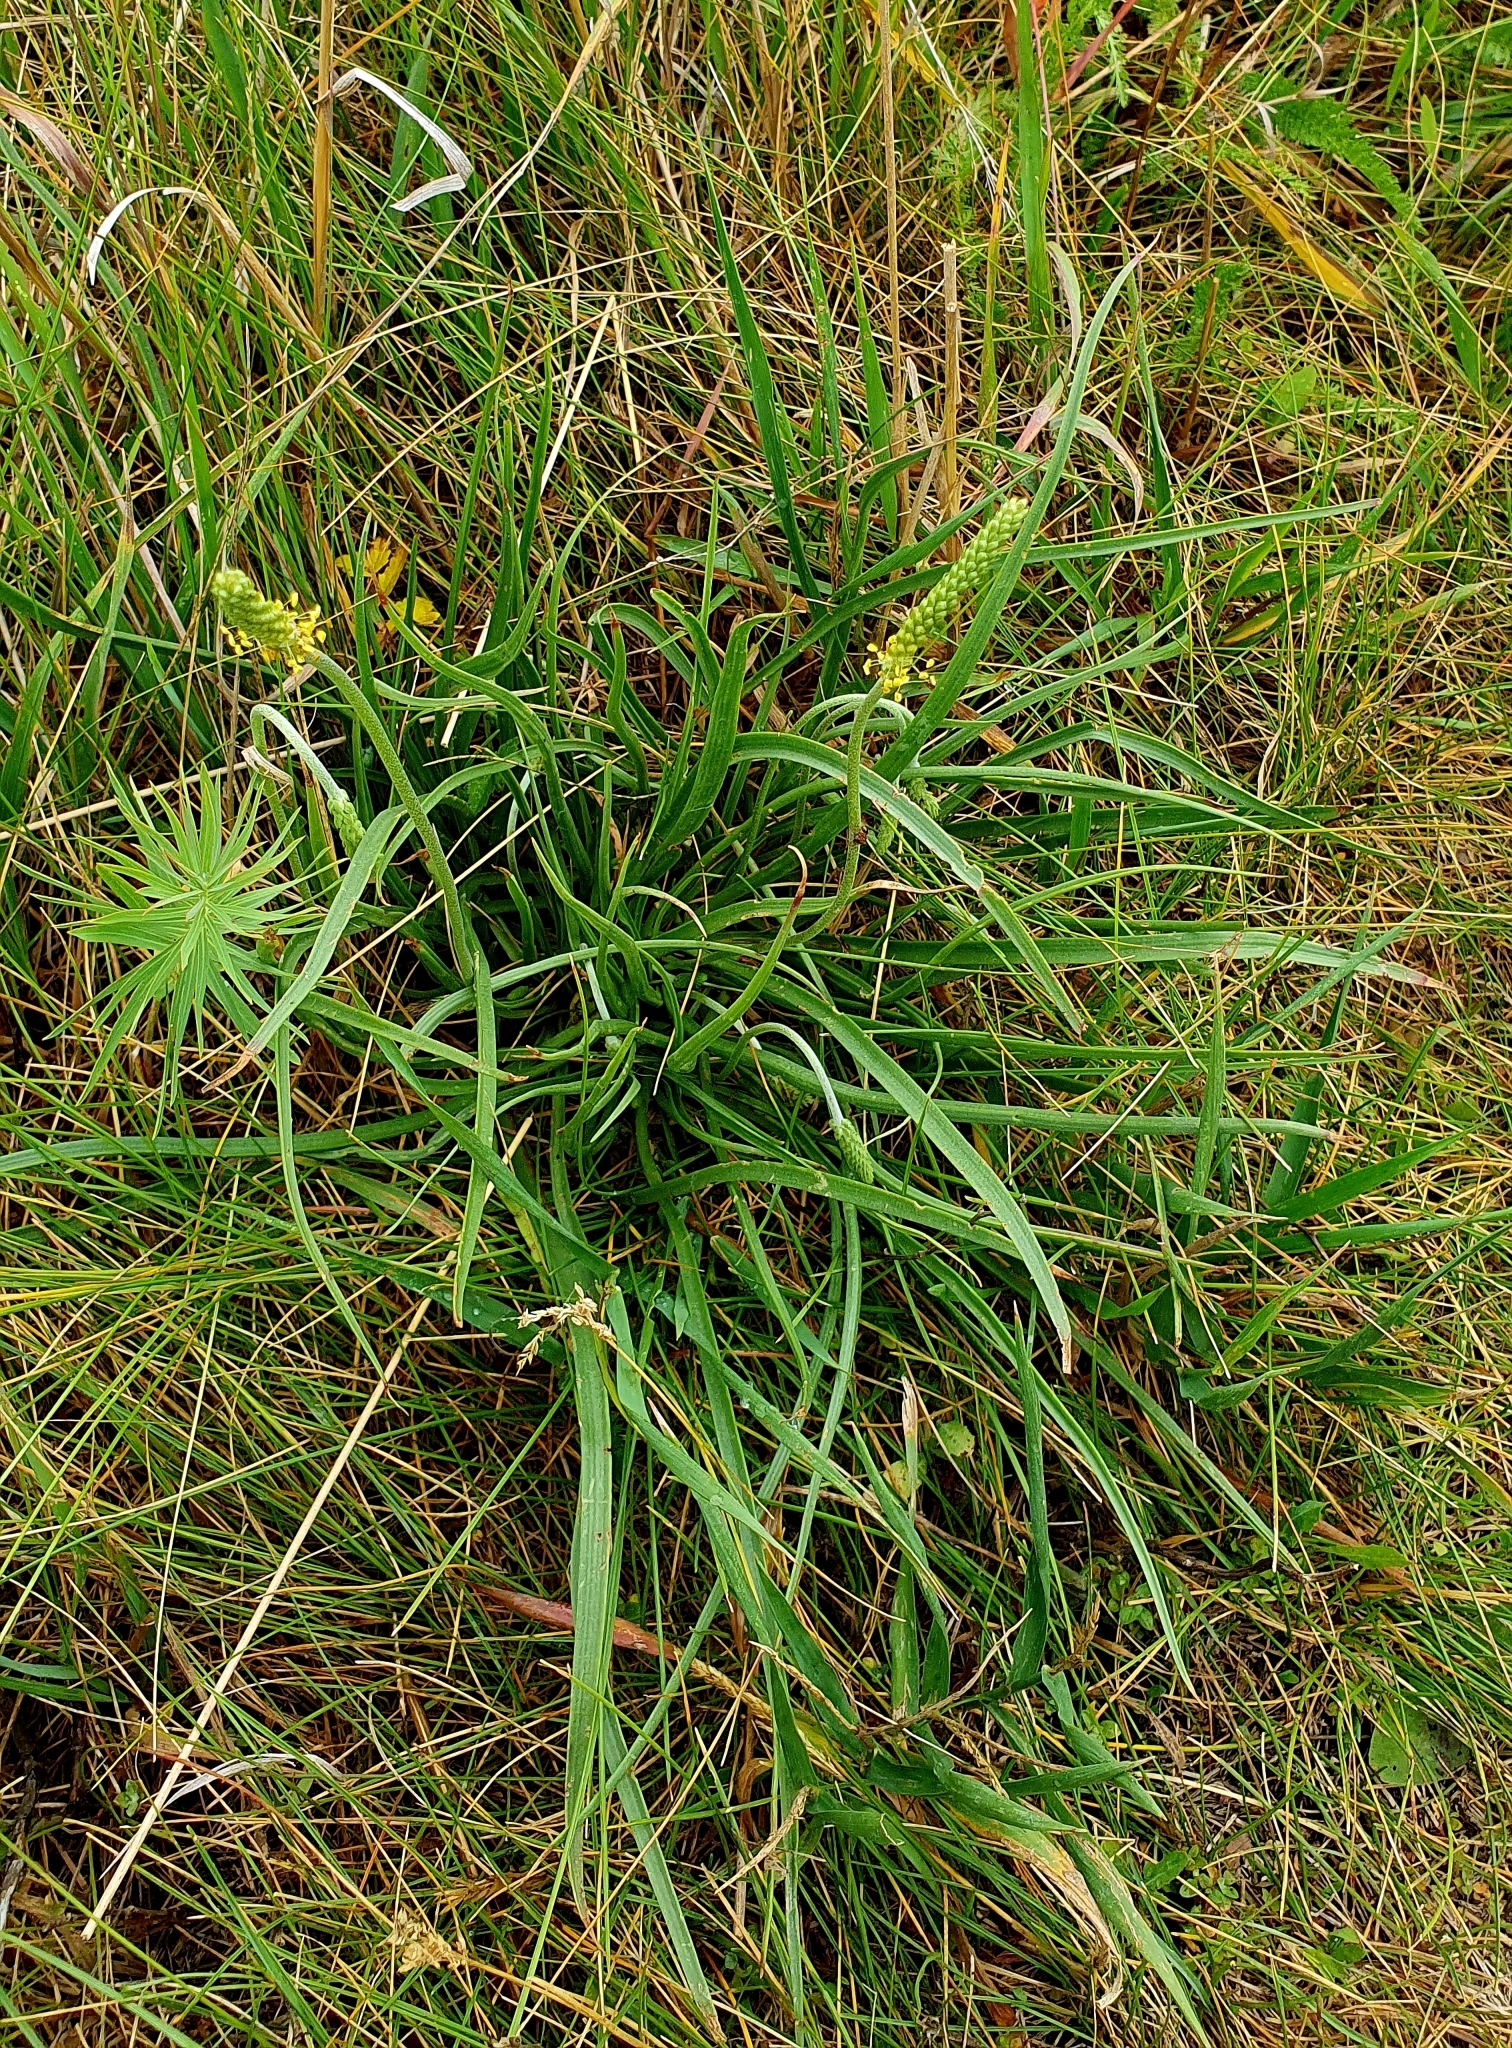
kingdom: Plantae
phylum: Tracheophyta
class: Magnoliopsida
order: Lamiales
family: Plantaginaceae
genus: Plantago
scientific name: Plantago salsa
